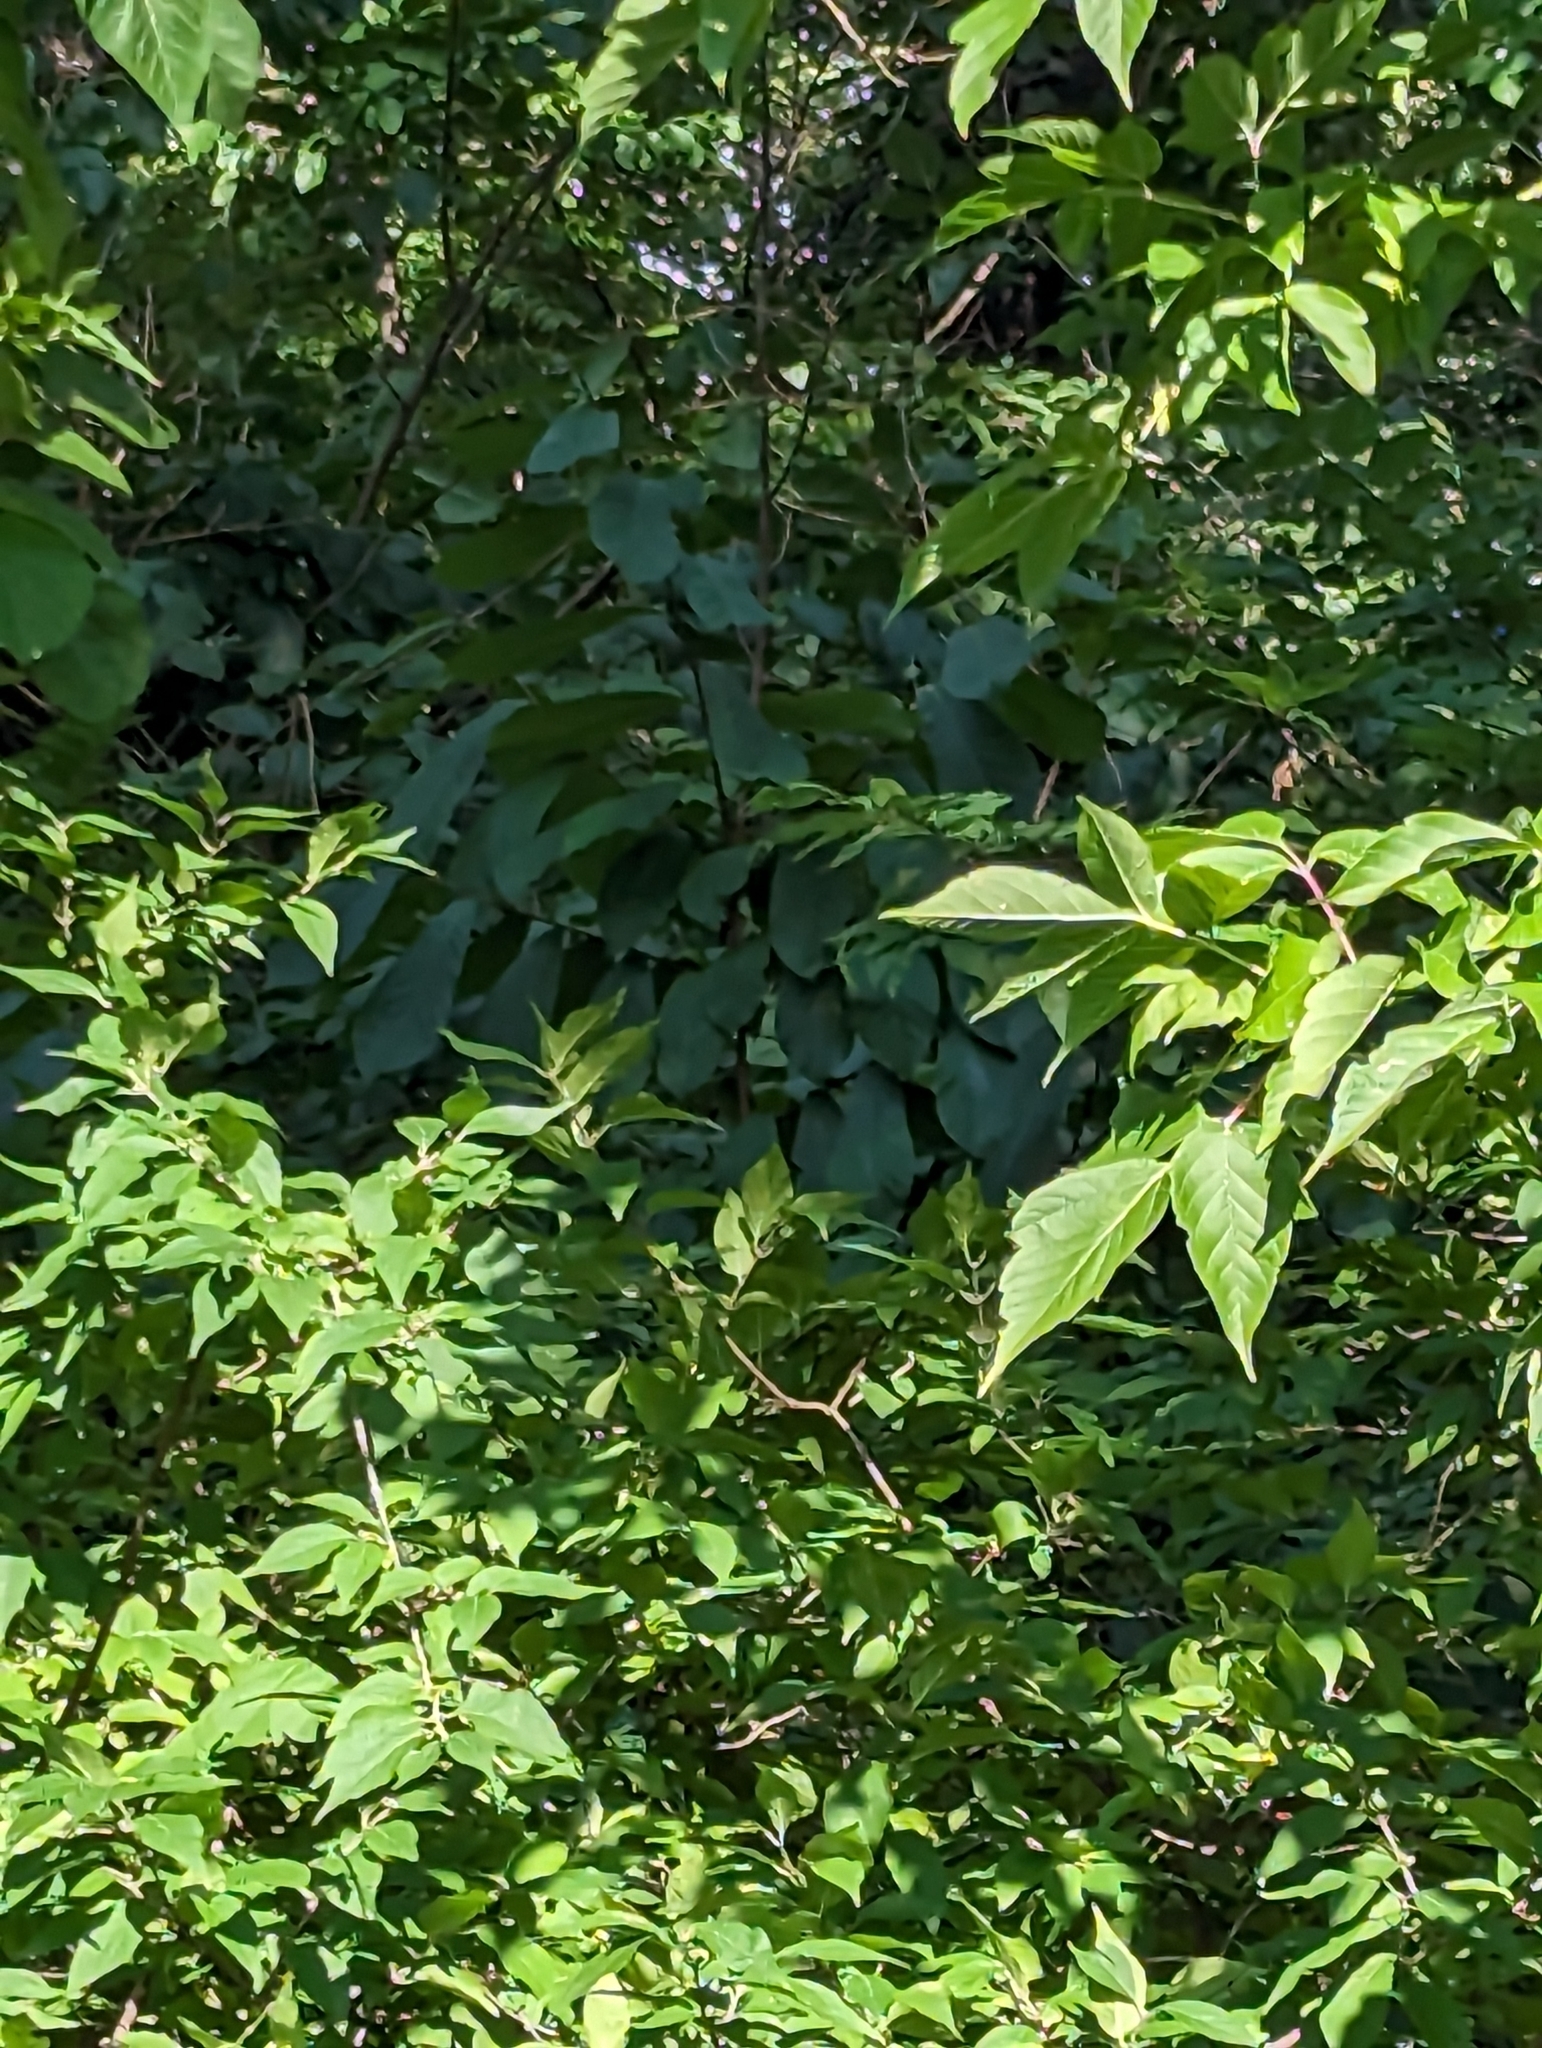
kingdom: Plantae
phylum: Tracheophyta
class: Magnoliopsida
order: Magnoliales
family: Annonaceae
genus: Asimina
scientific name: Asimina triloba
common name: Dog-banana
